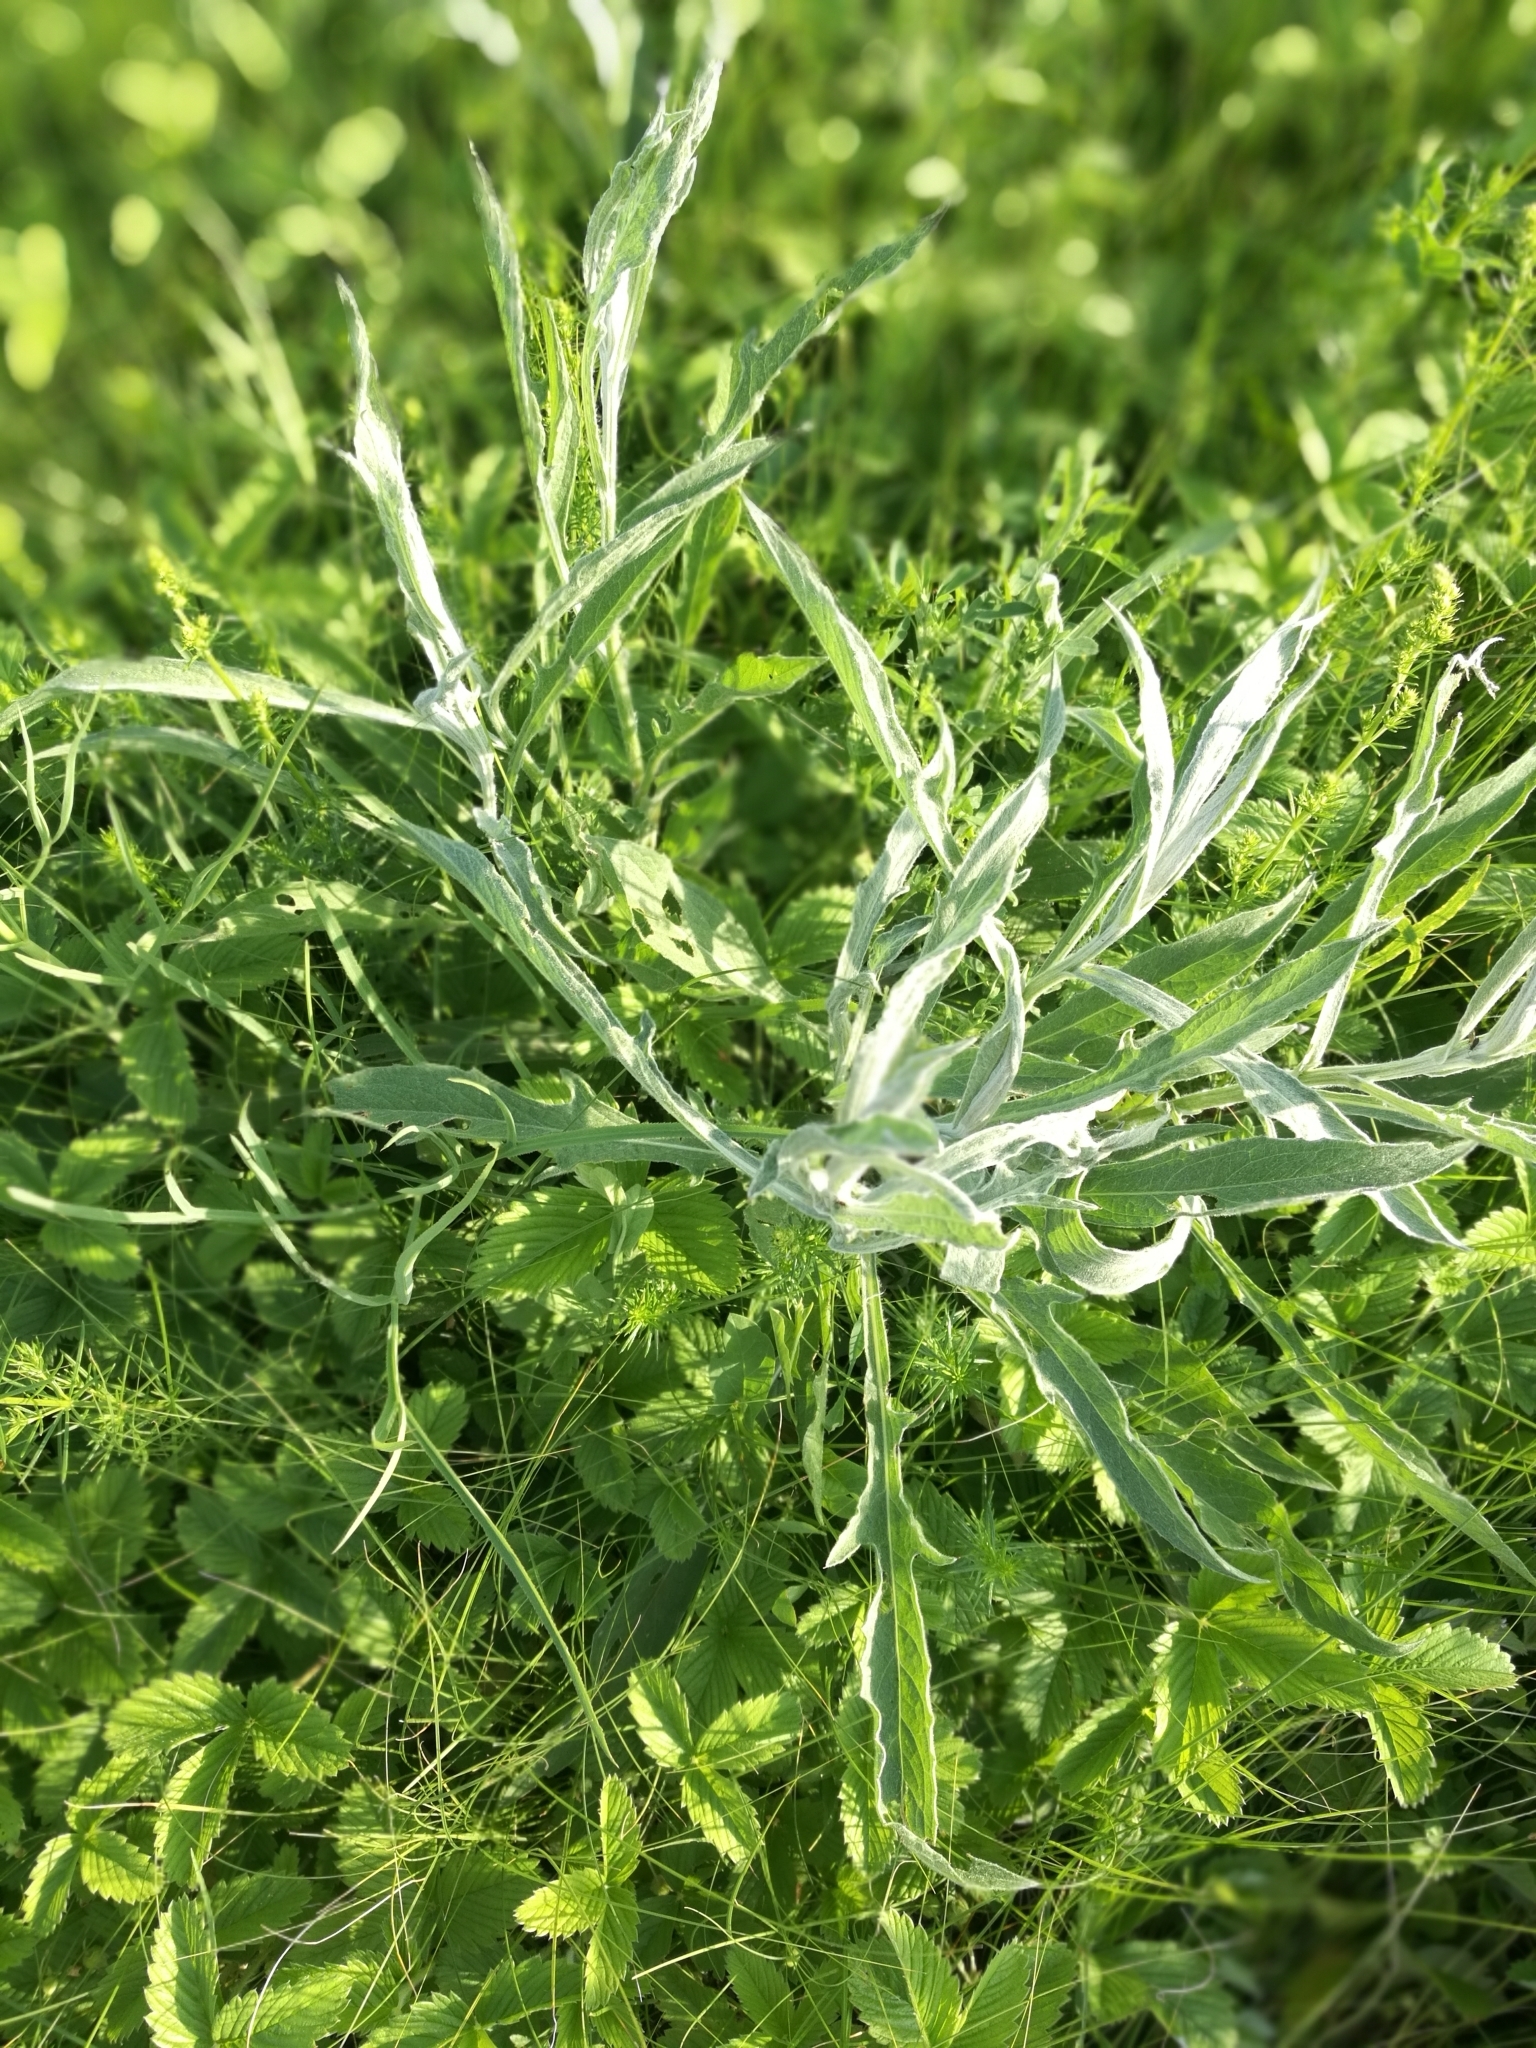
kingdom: Plantae
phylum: Tracheophyta
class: Magnoliopsida
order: Asterales
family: Asteraceae
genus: Centaurea
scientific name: Centaurea jacea
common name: Brown knapweed
